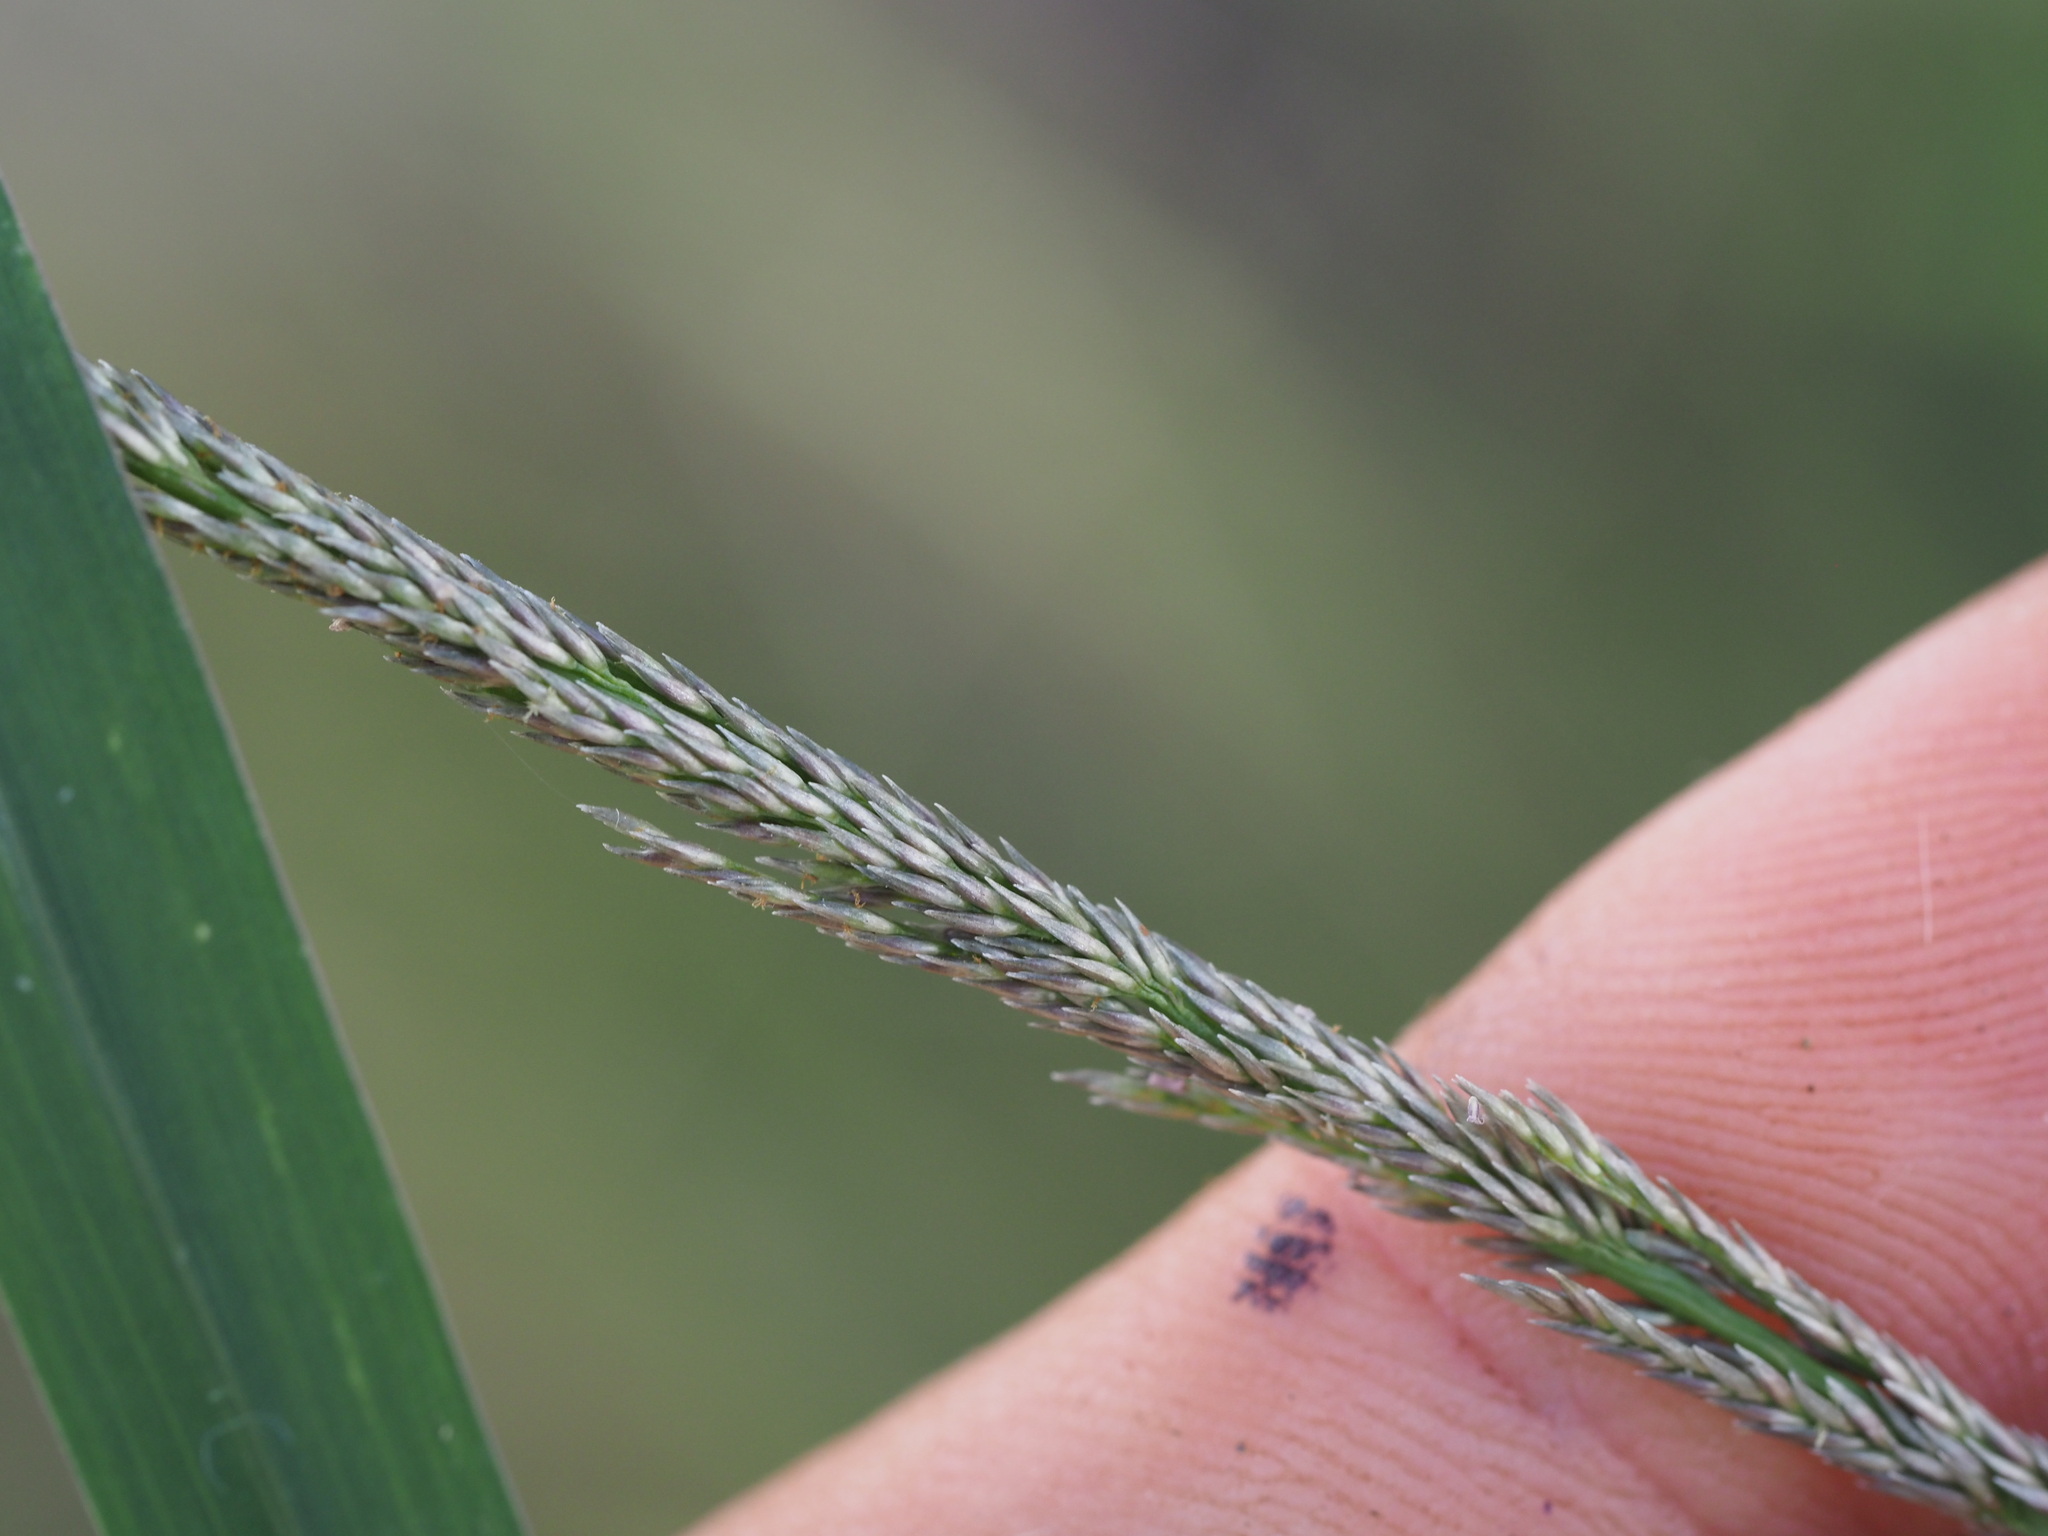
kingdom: Plantae
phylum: Tracheophyta
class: Liliopsida
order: Poales
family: Poaceae
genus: Sporobolus
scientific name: Sporobolus africanus
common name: African dropseed
